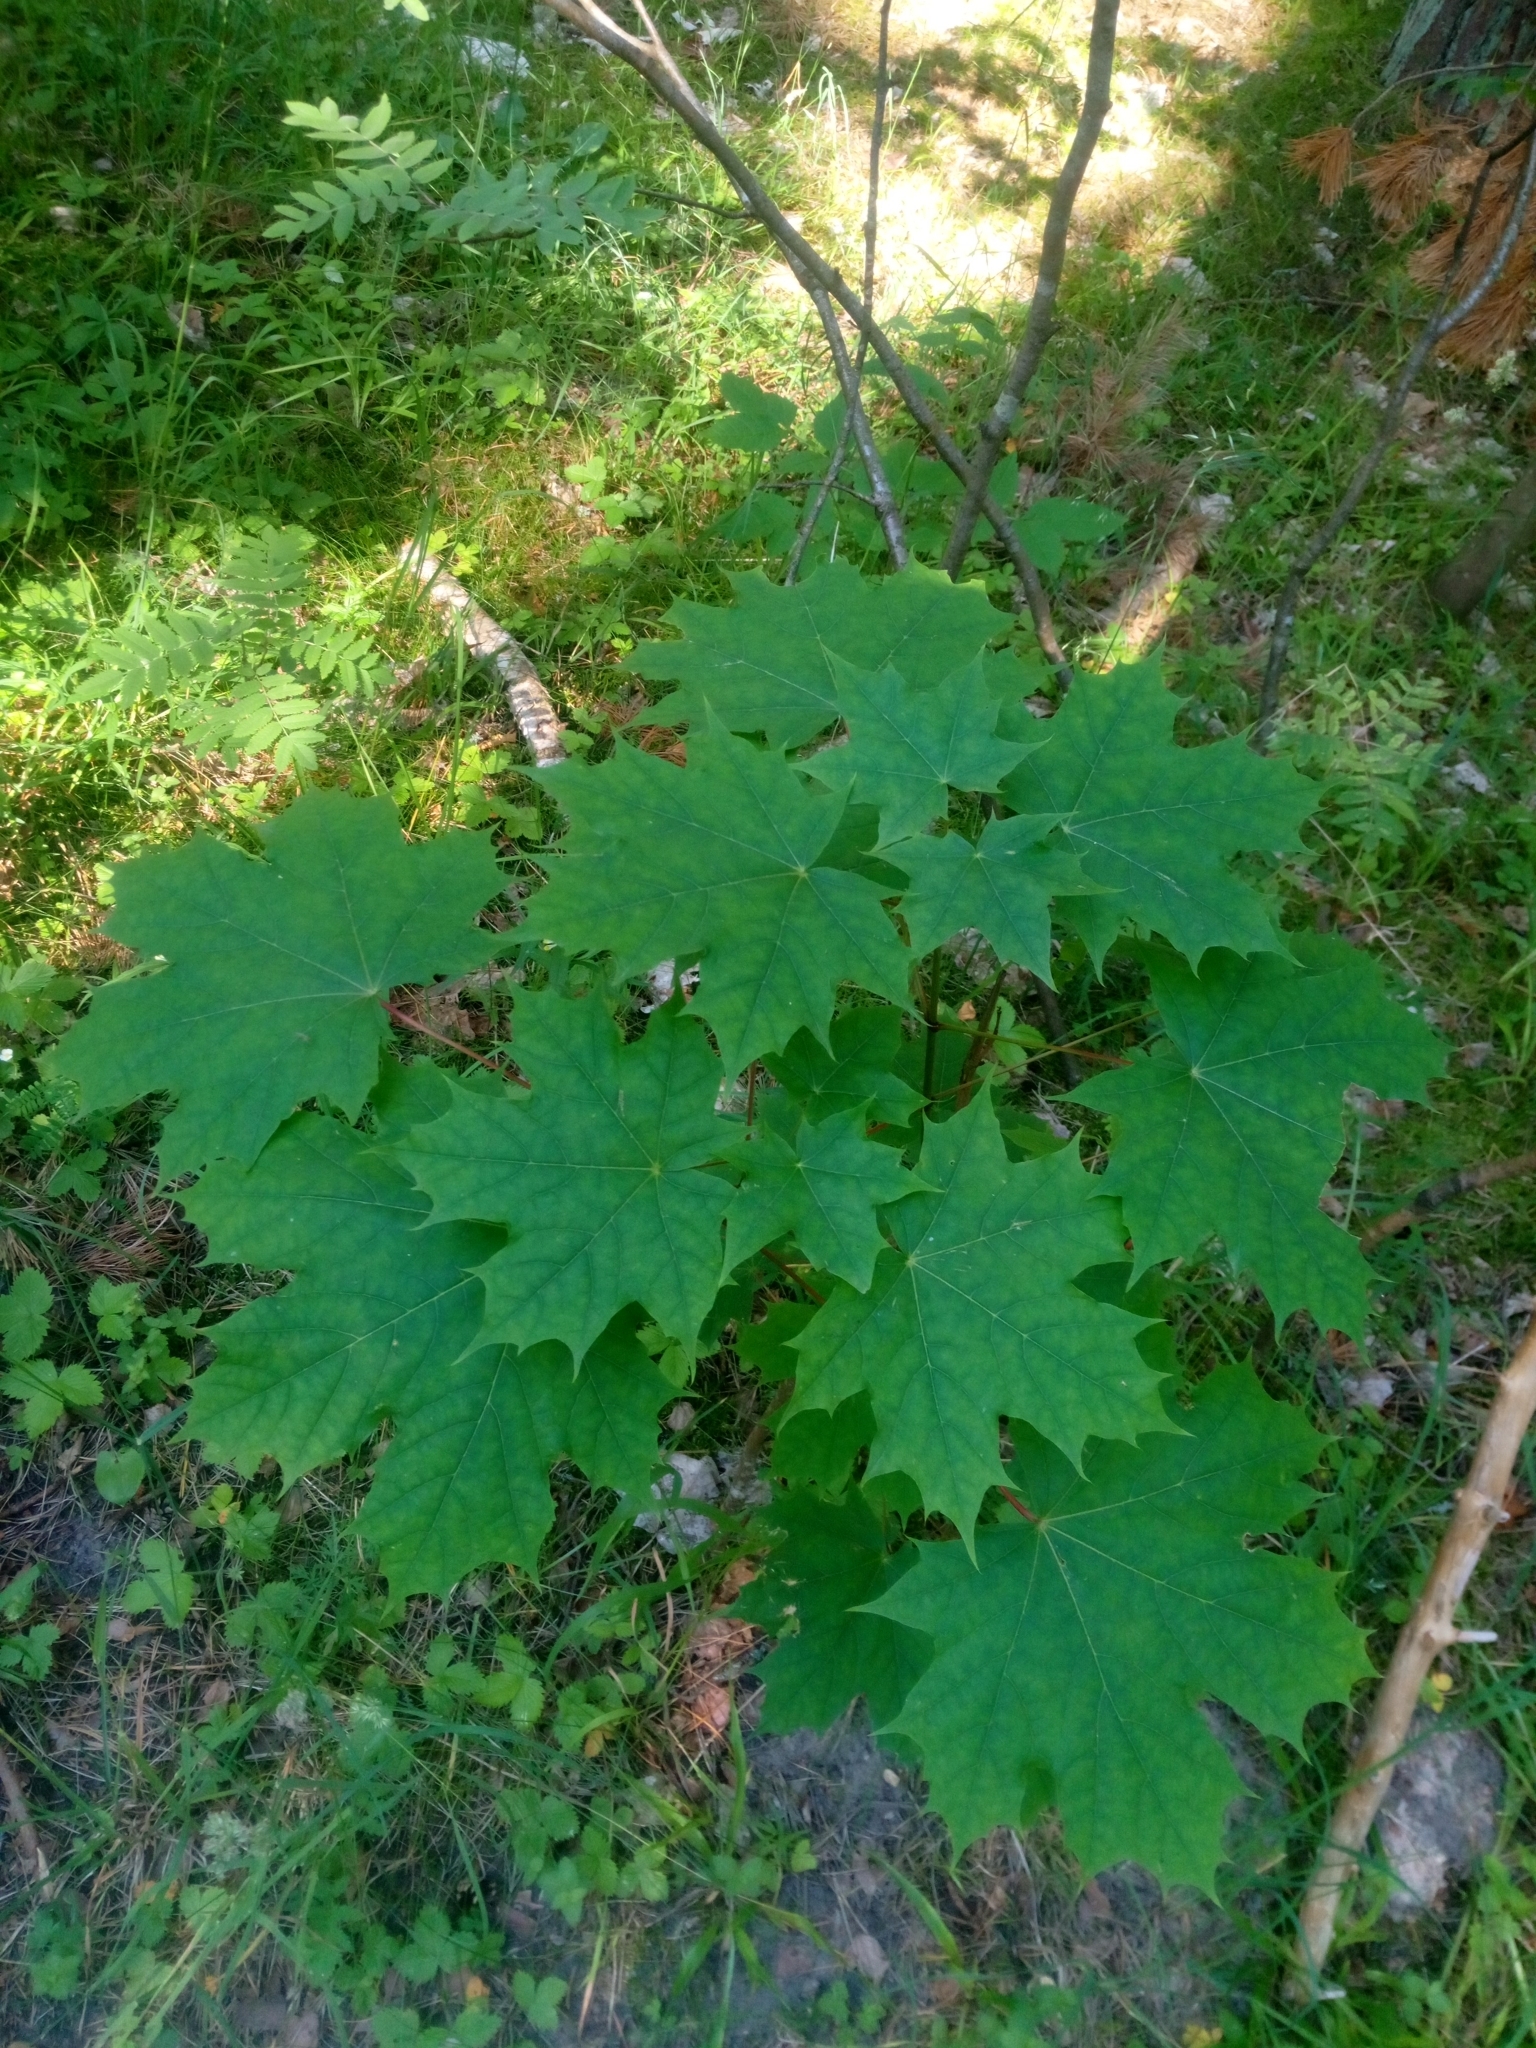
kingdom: Plantae
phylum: Tracheophyta
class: Magnoliopsida
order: Sapindales
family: Sapindaceae
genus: Acer
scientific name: Acer platanoides
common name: Norway maple
